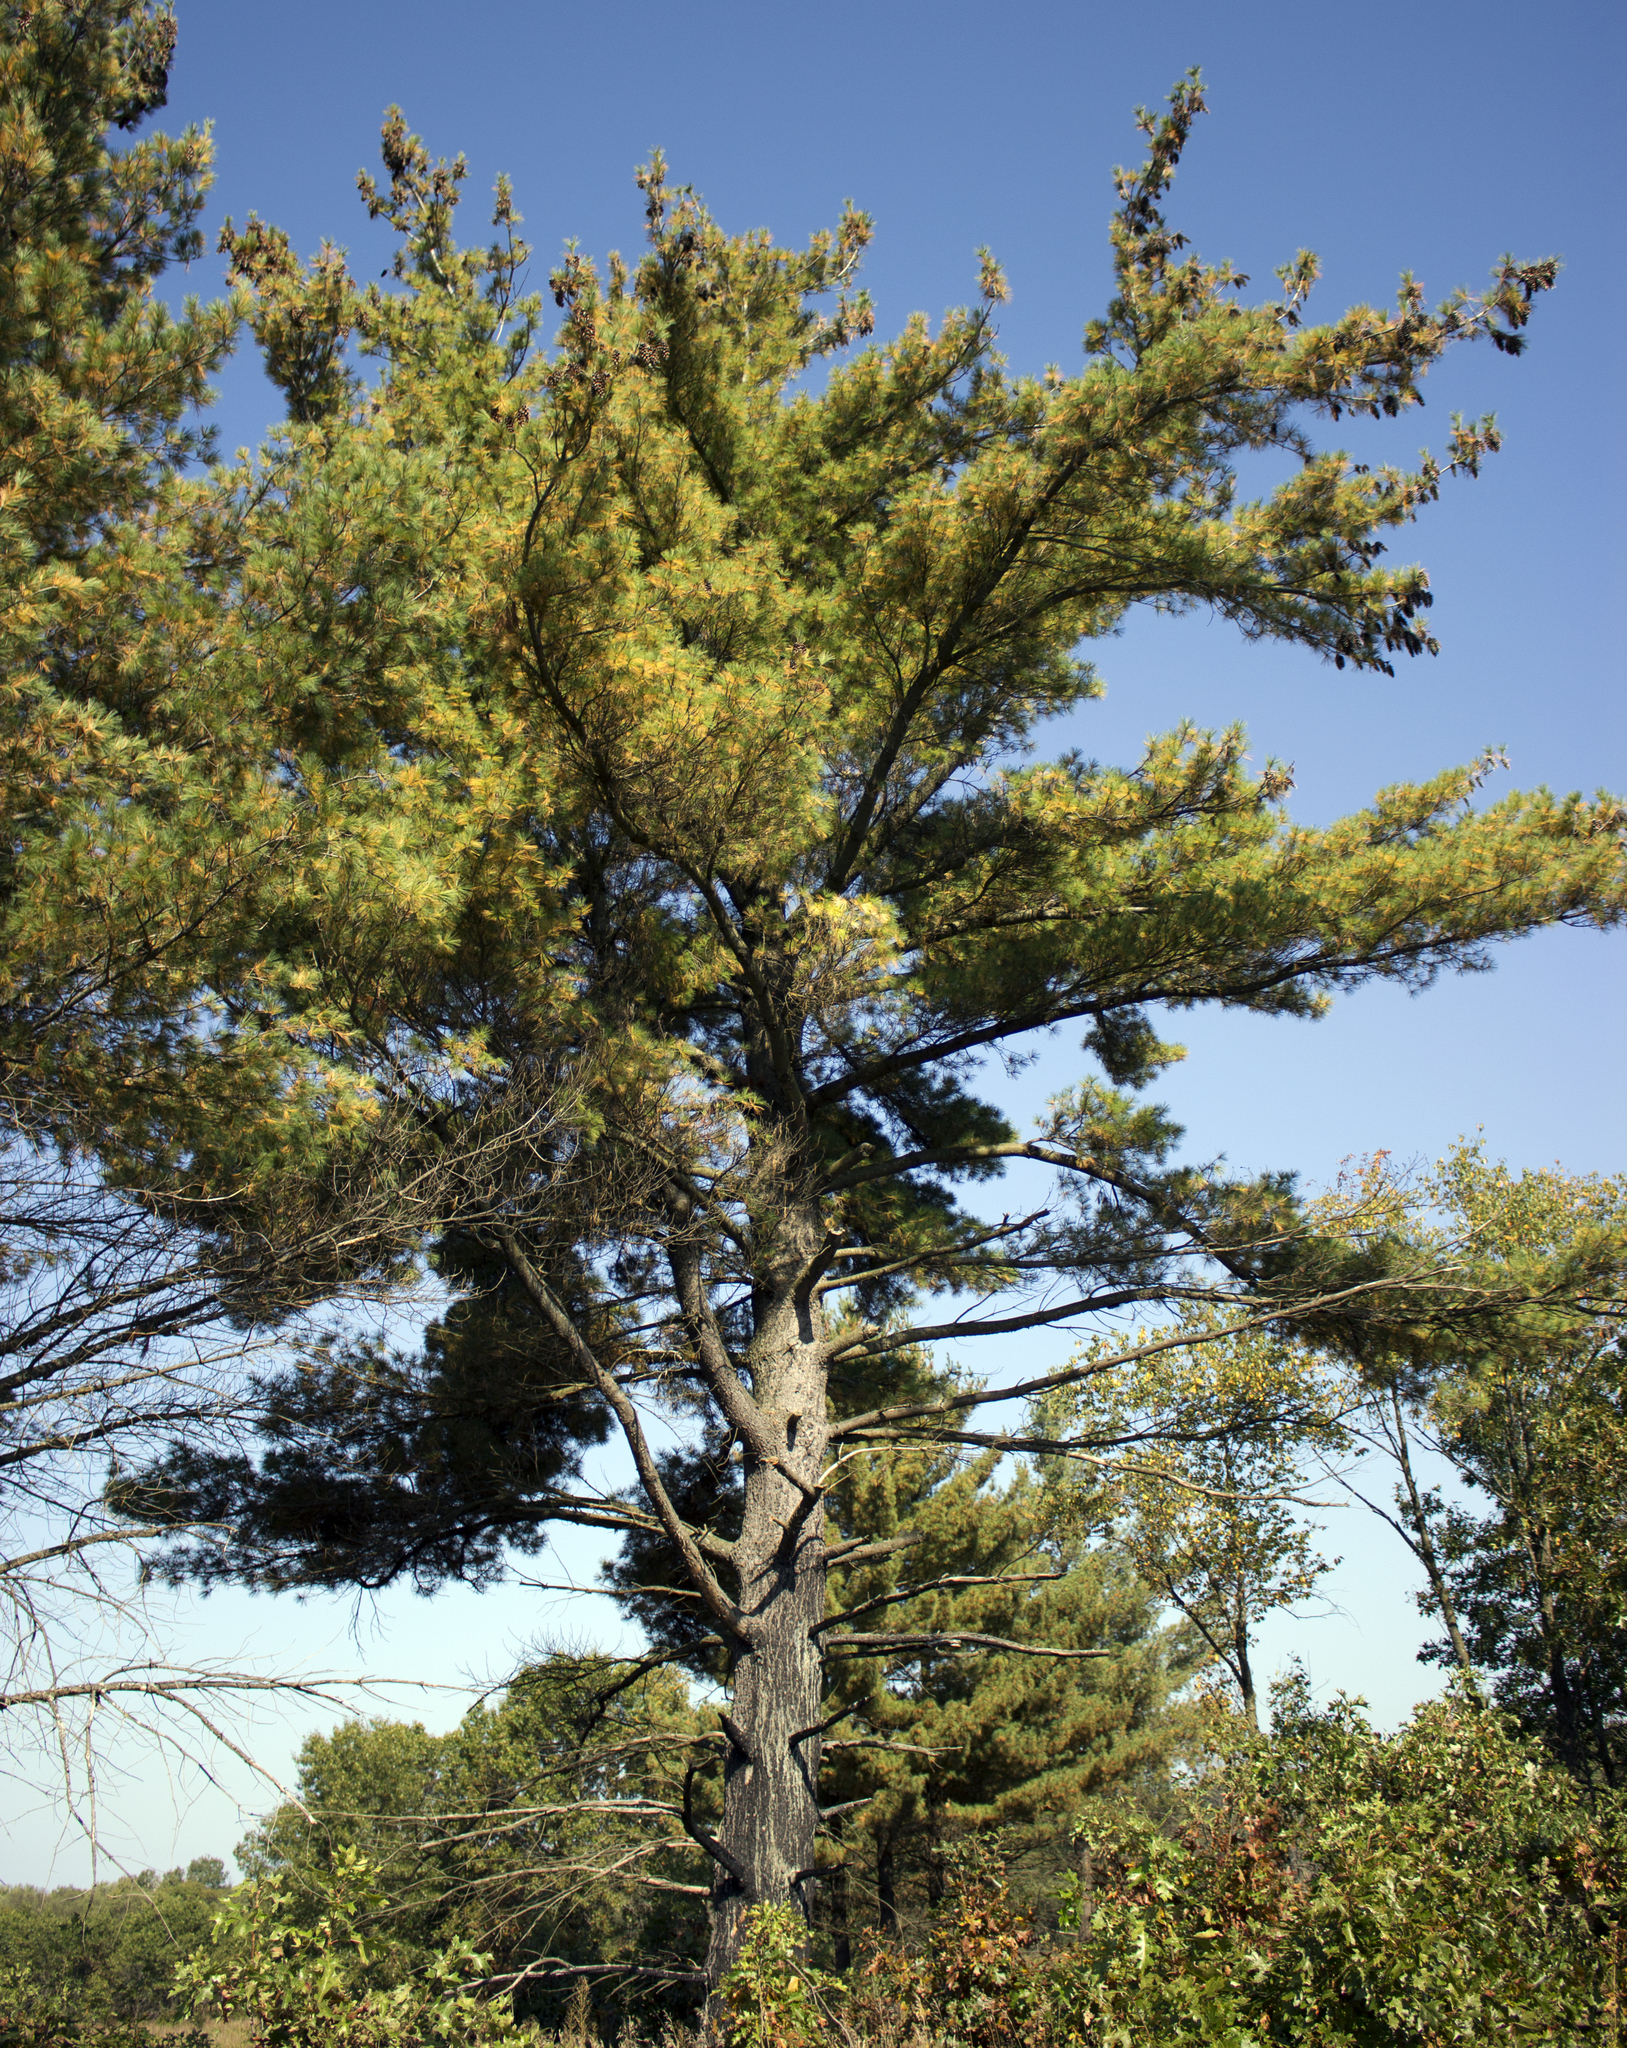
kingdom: Plantae
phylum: Tracheophyta
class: Pinopsida
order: Pinales
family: Pinaceae
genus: Pinus
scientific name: Pinus strobus
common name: Weymouth pine
